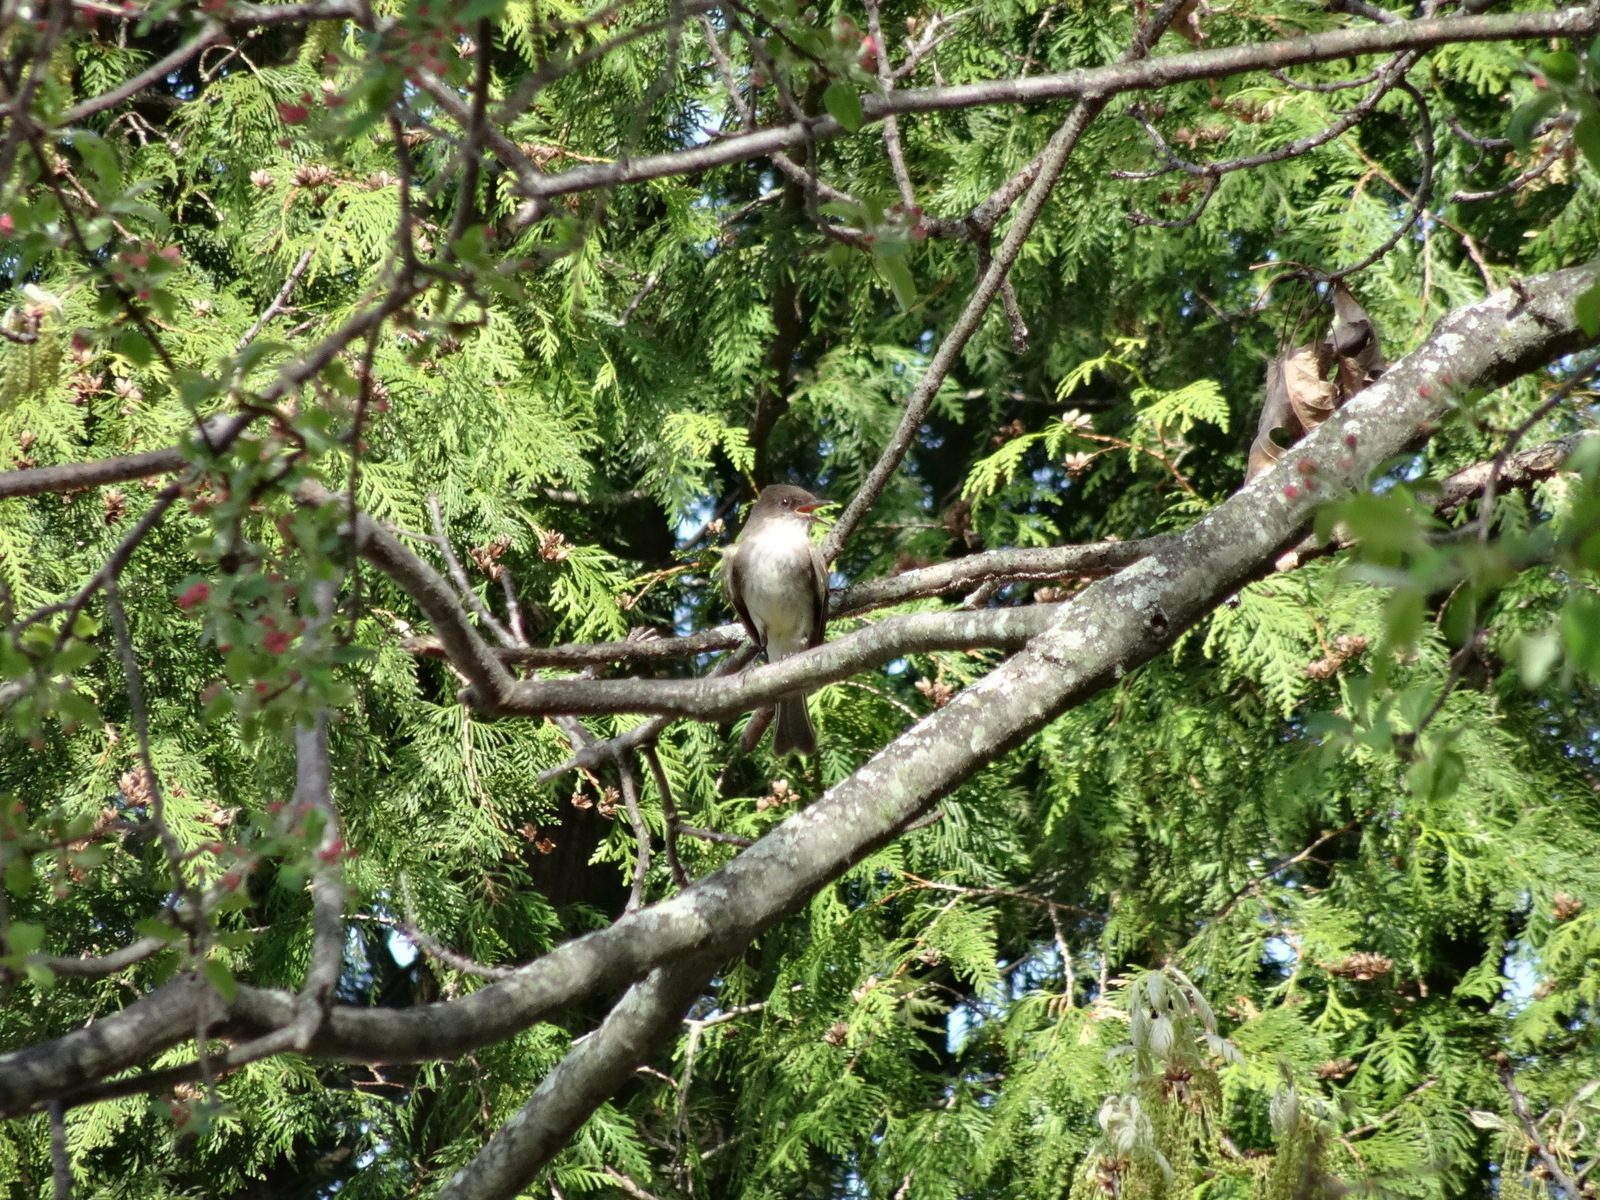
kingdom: Animalia
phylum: Chordata
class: Aves
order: Passeriformes
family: Tyrannidae
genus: Sayornis
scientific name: Sayornis phoebe
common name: Eastern phoebe
